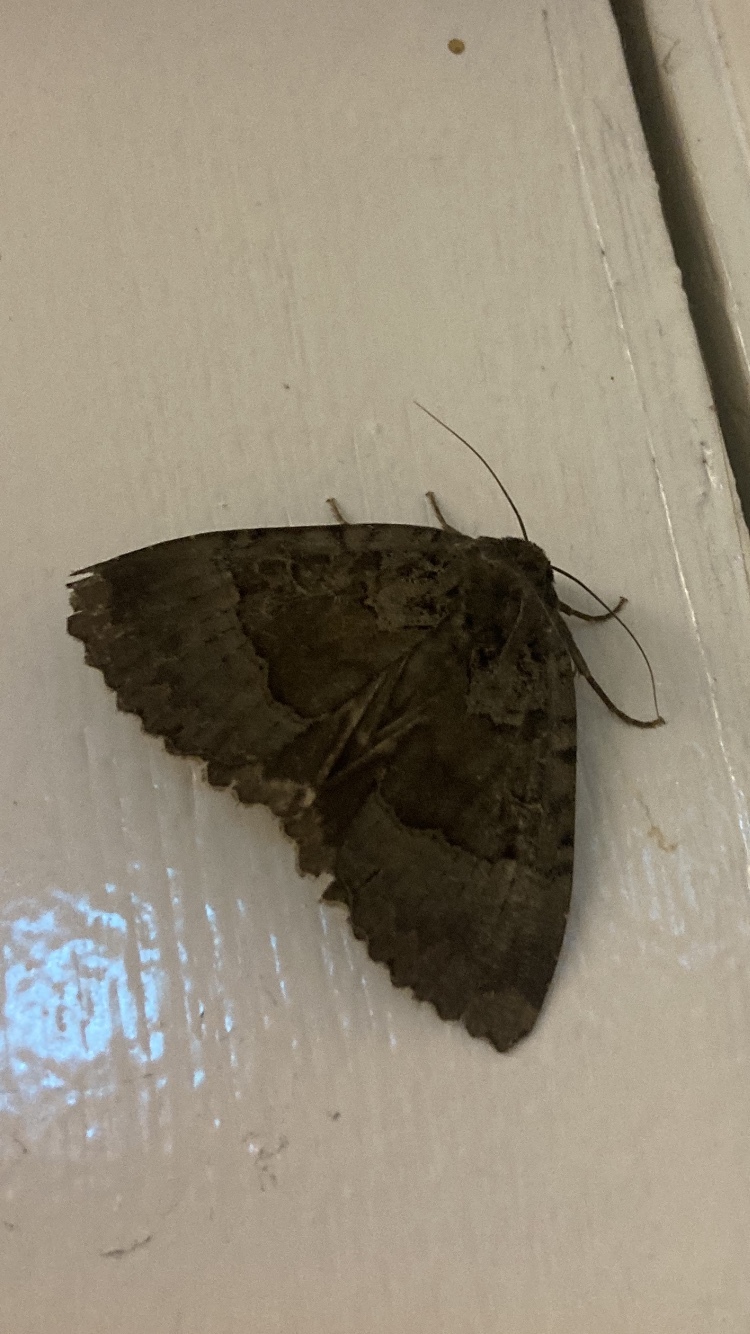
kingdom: Animalia
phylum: Arthropoda
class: Insecta
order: Lepidoptera
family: Noctuidae
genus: Mormo
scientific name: Mormo maura
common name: Old lady
